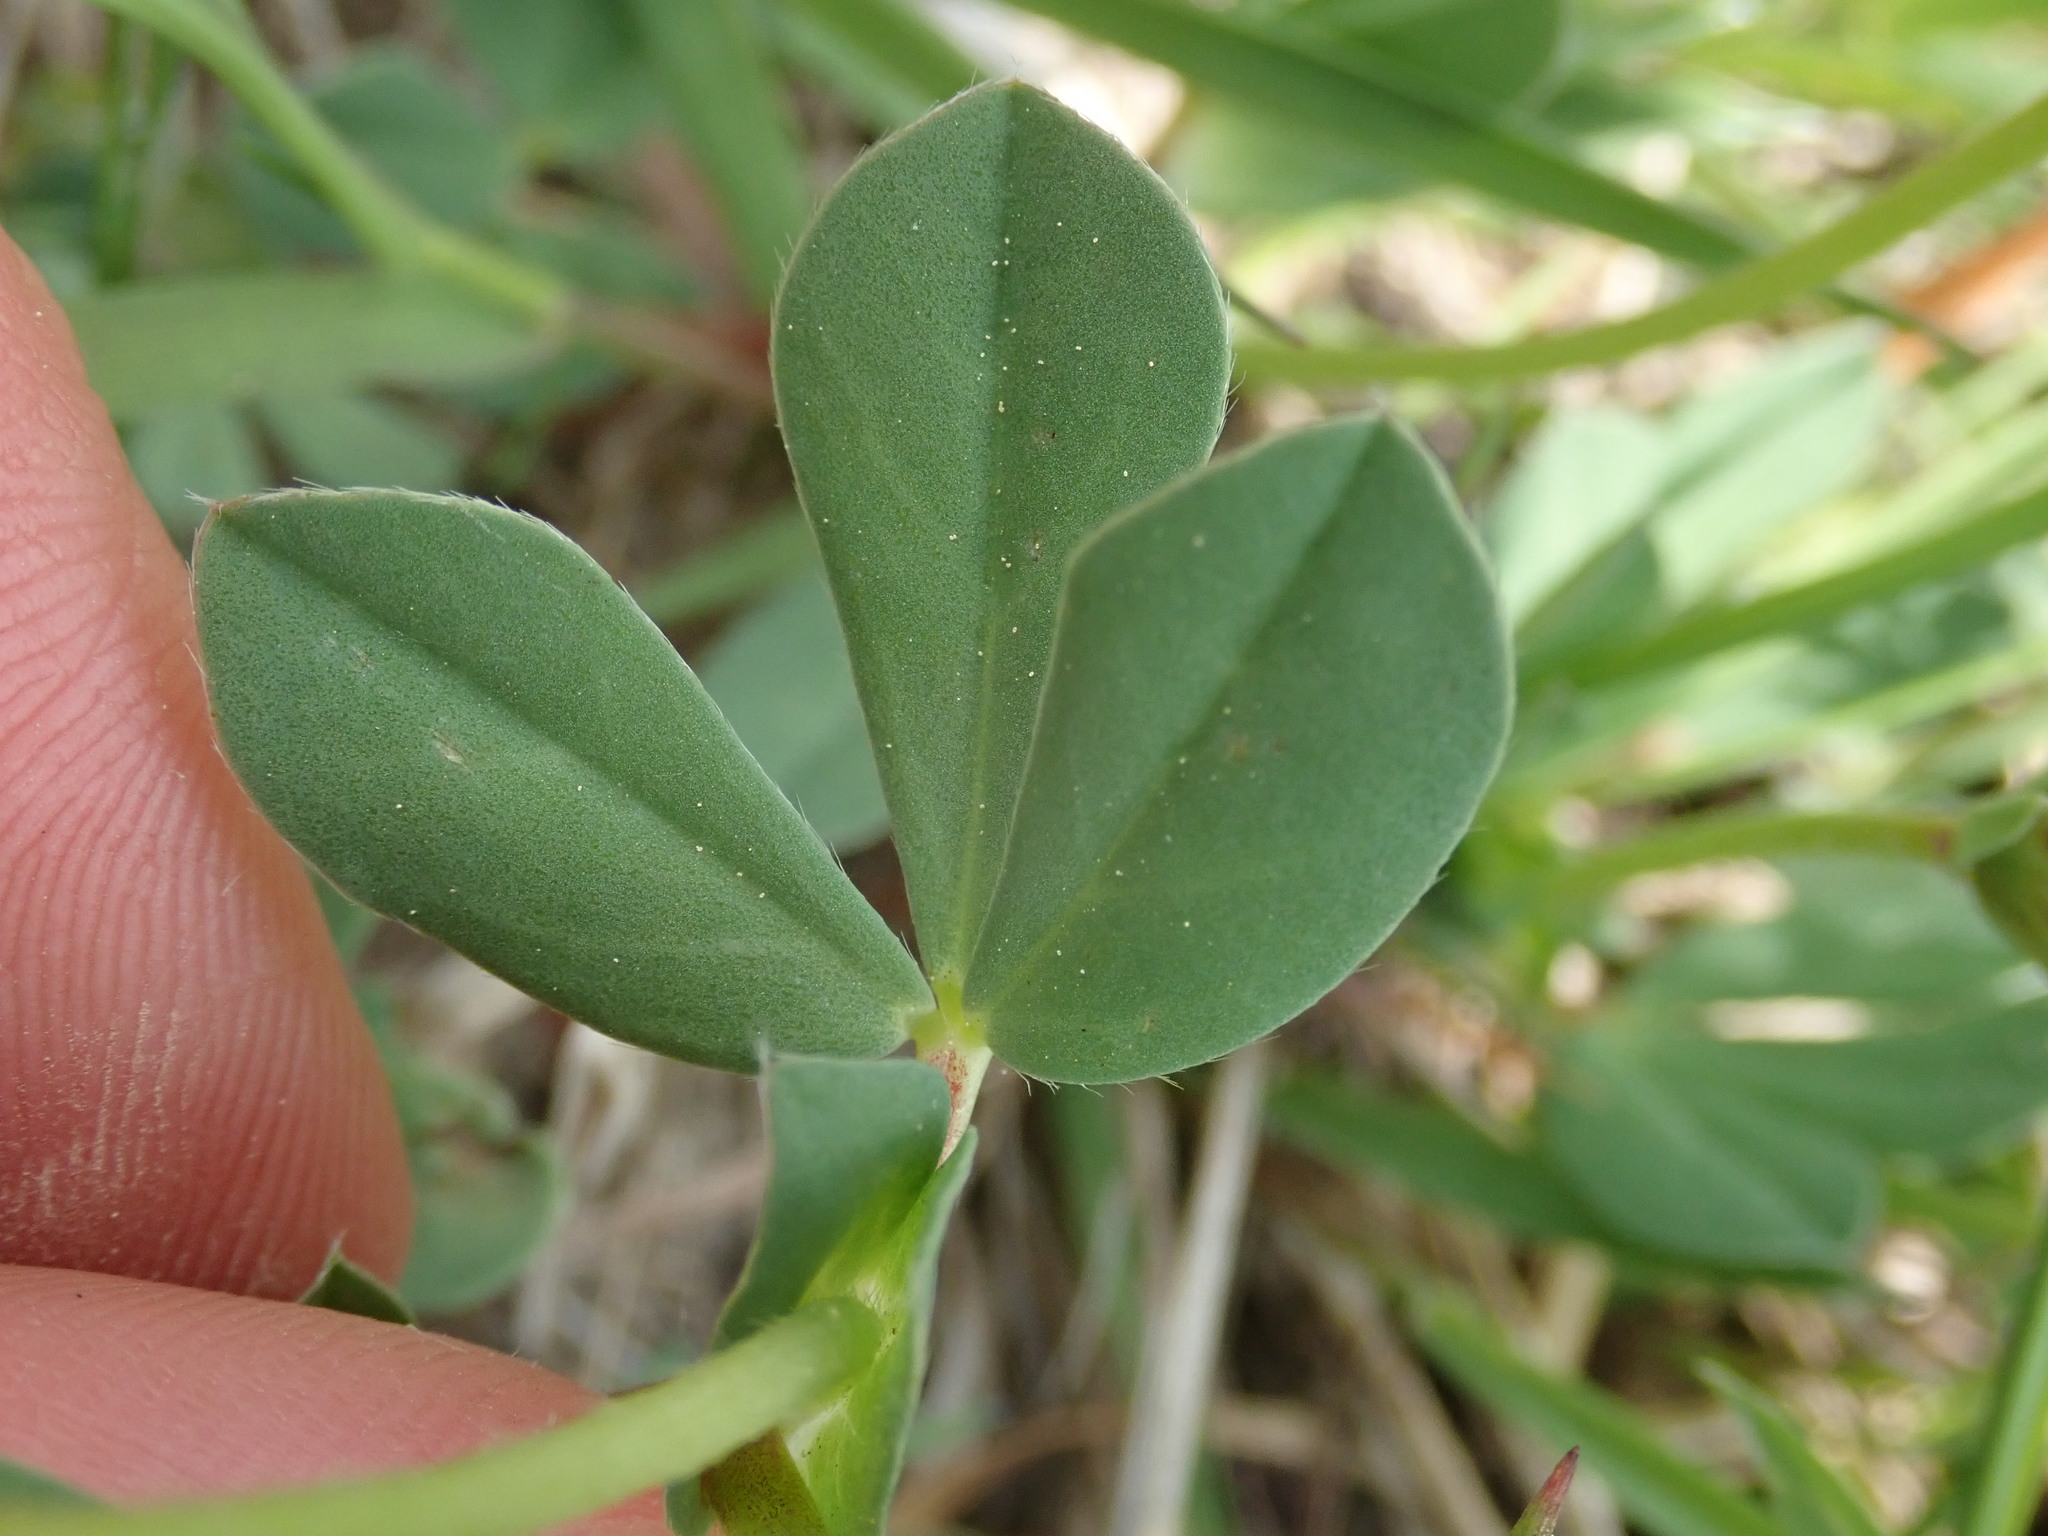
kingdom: Plantae
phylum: Tracheophyta
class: Magnoliopsida
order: Fabales
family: Fabaceae
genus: Lotus
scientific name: Lotus maritimus
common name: Dragon's-teeth
